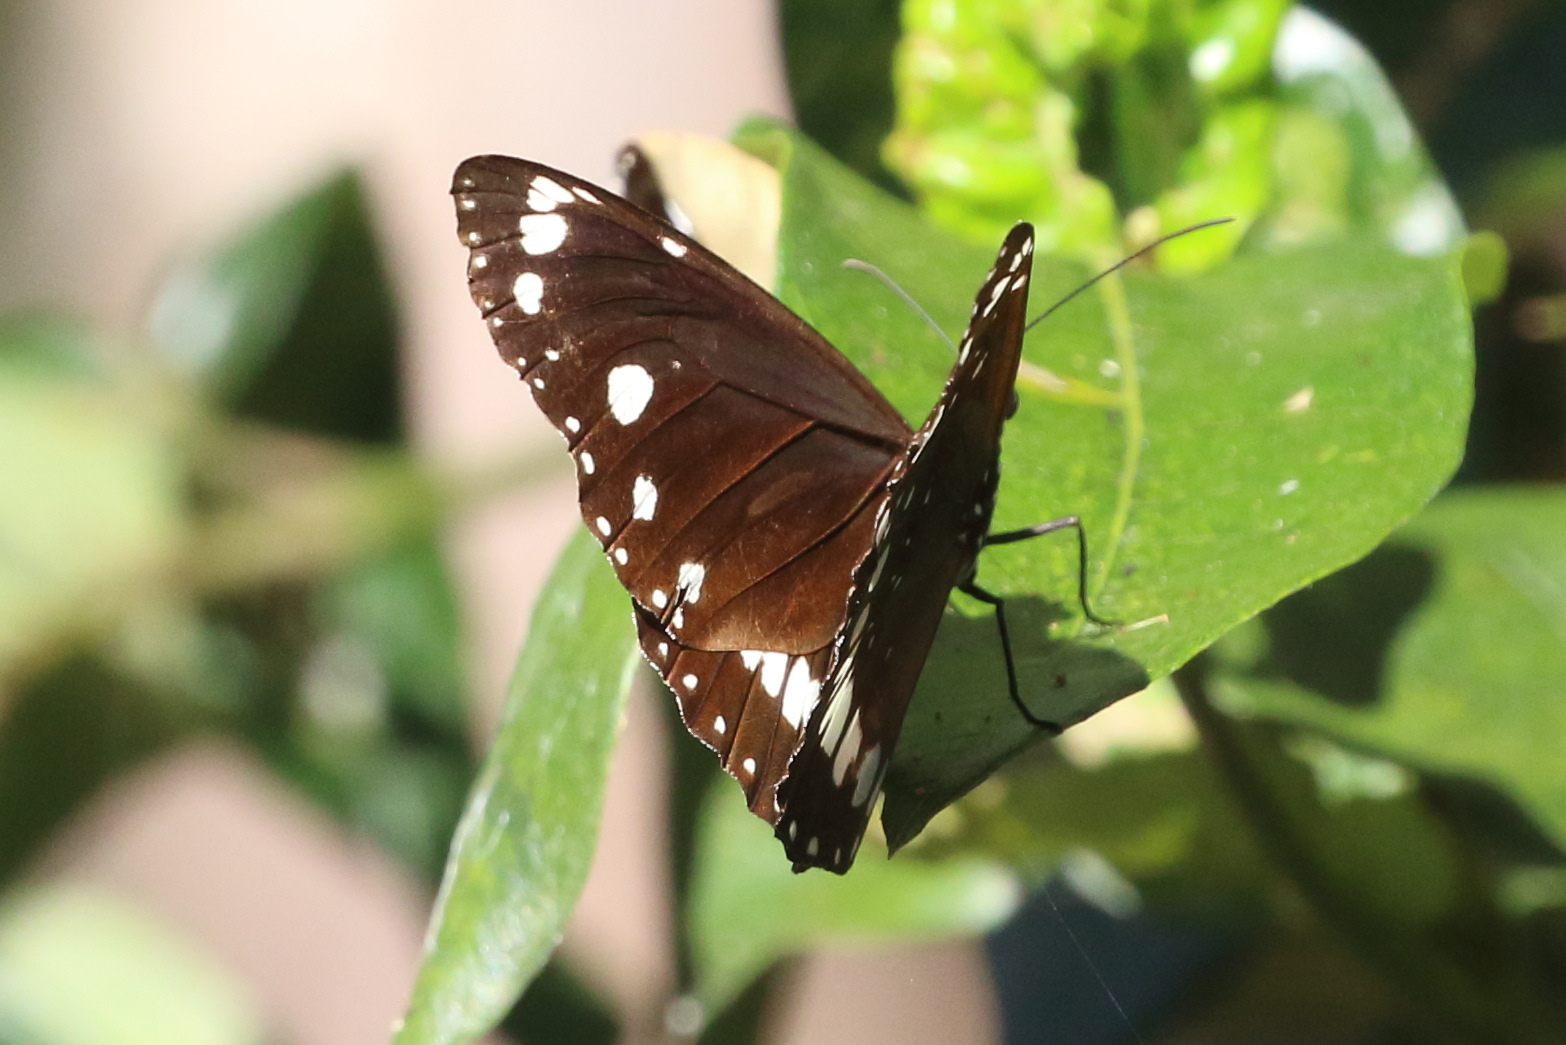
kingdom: Animalia
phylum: Arthropoda
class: Insecta
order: Lepidoptera
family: Nymphalidae
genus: Euploea
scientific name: Euploea core
